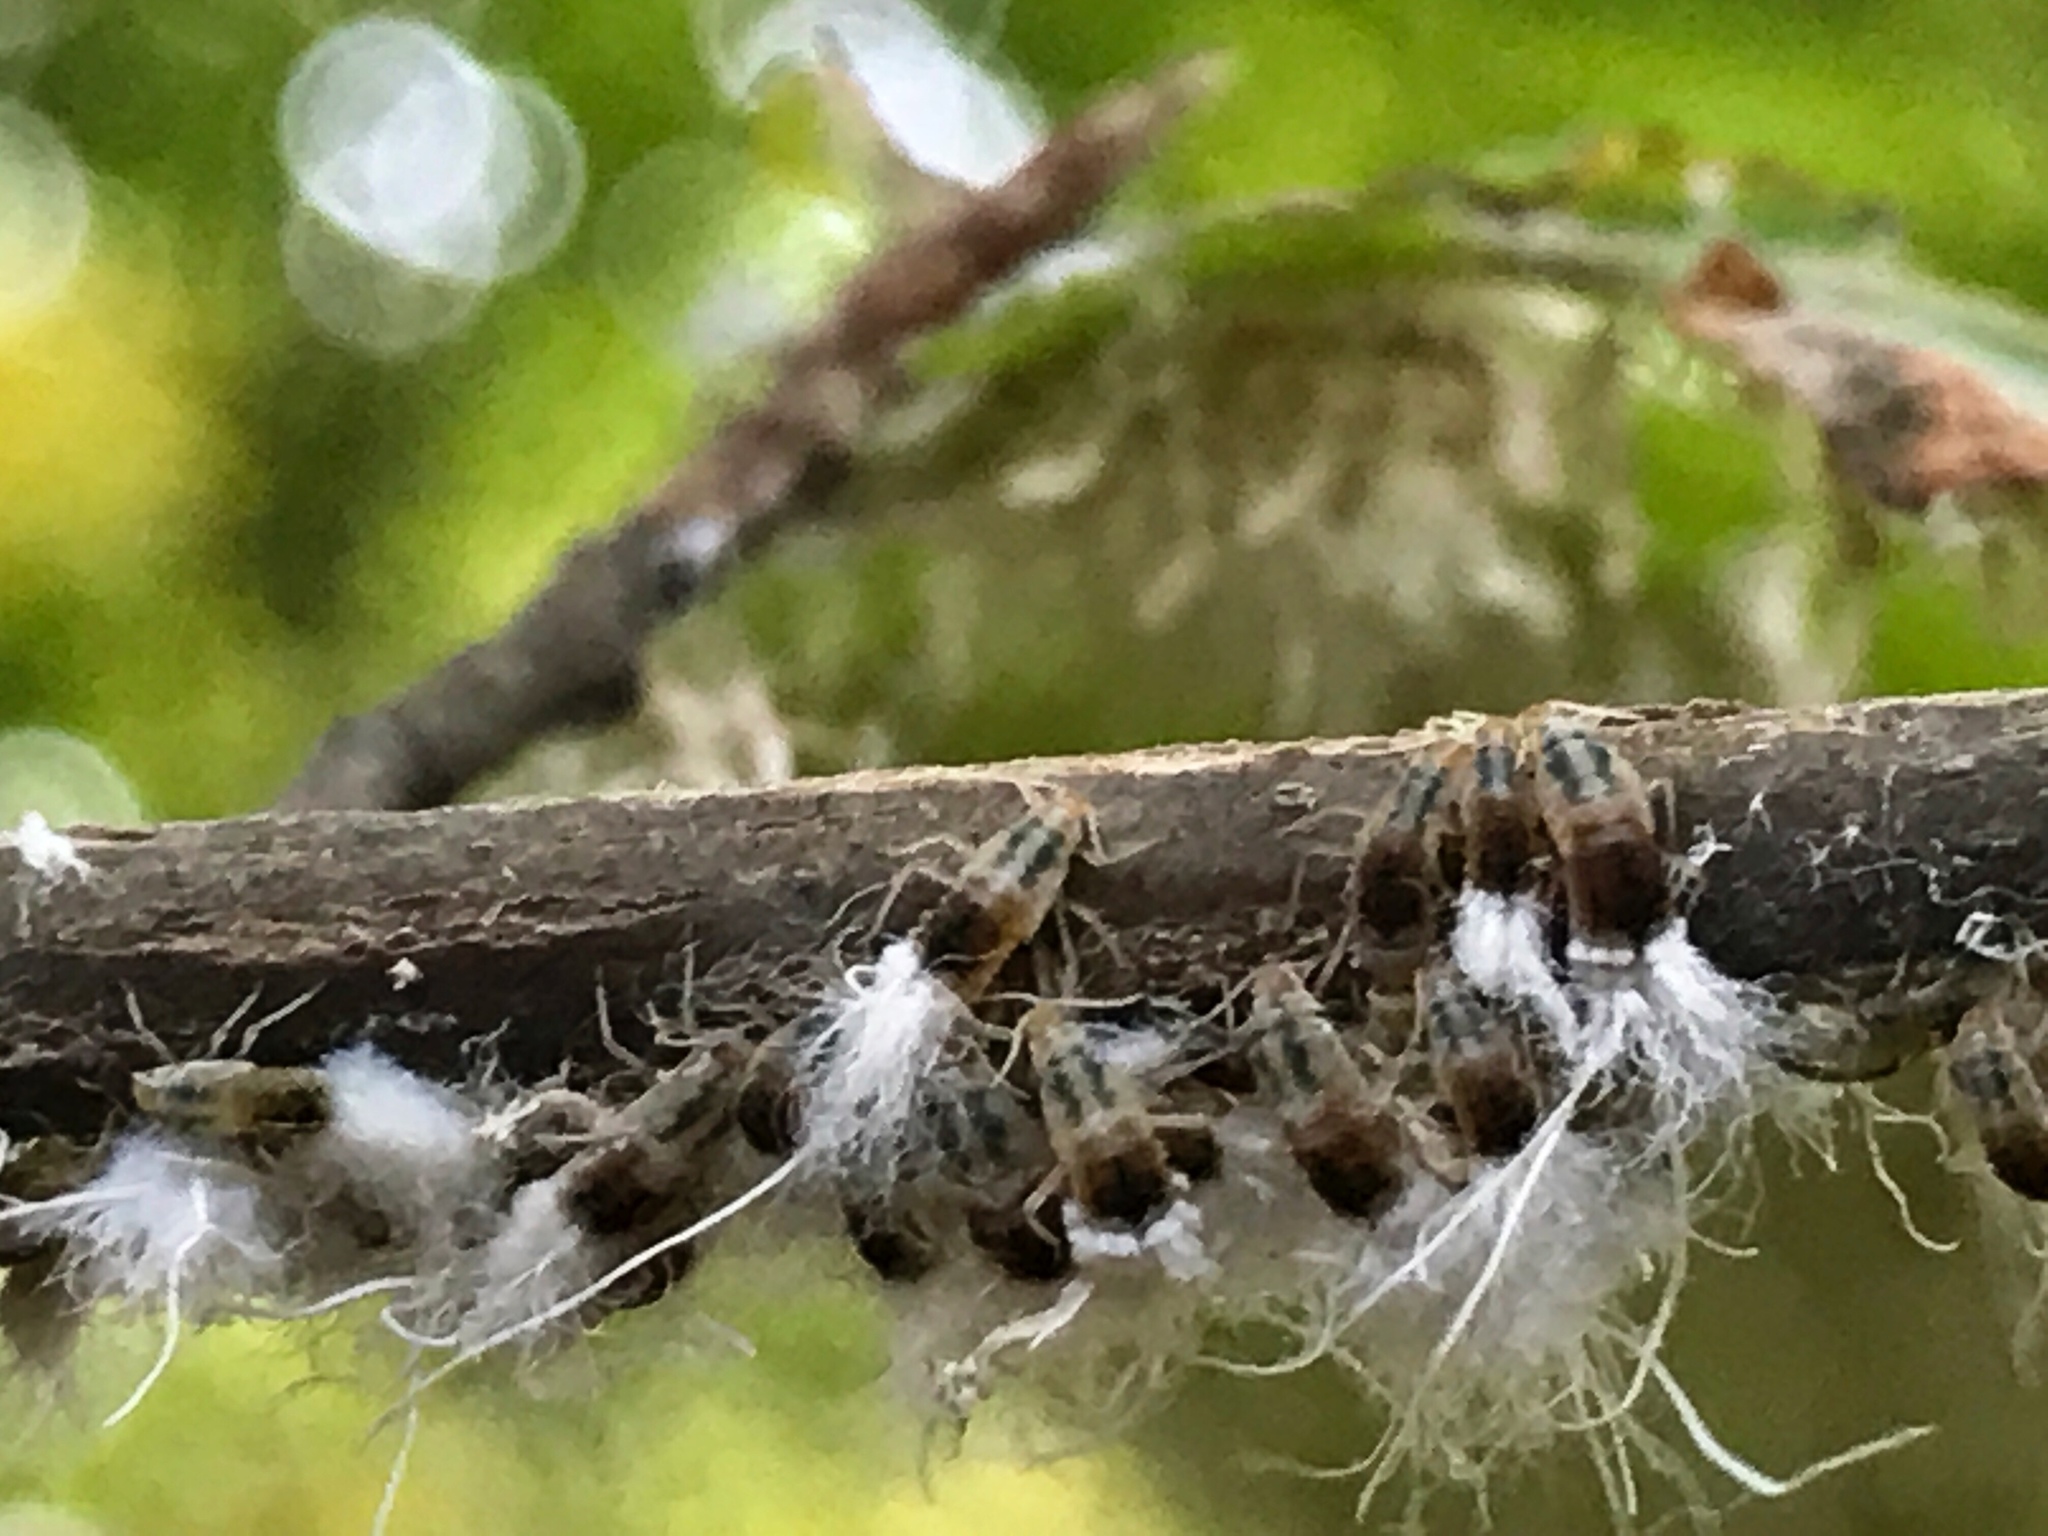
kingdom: Animalia
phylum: Arthropoda
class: Insecta
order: Hemiptera
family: Aphididae
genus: Grylloprociphilus
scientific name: Grylloprociphilus imbricator
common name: Beech blight aphid
